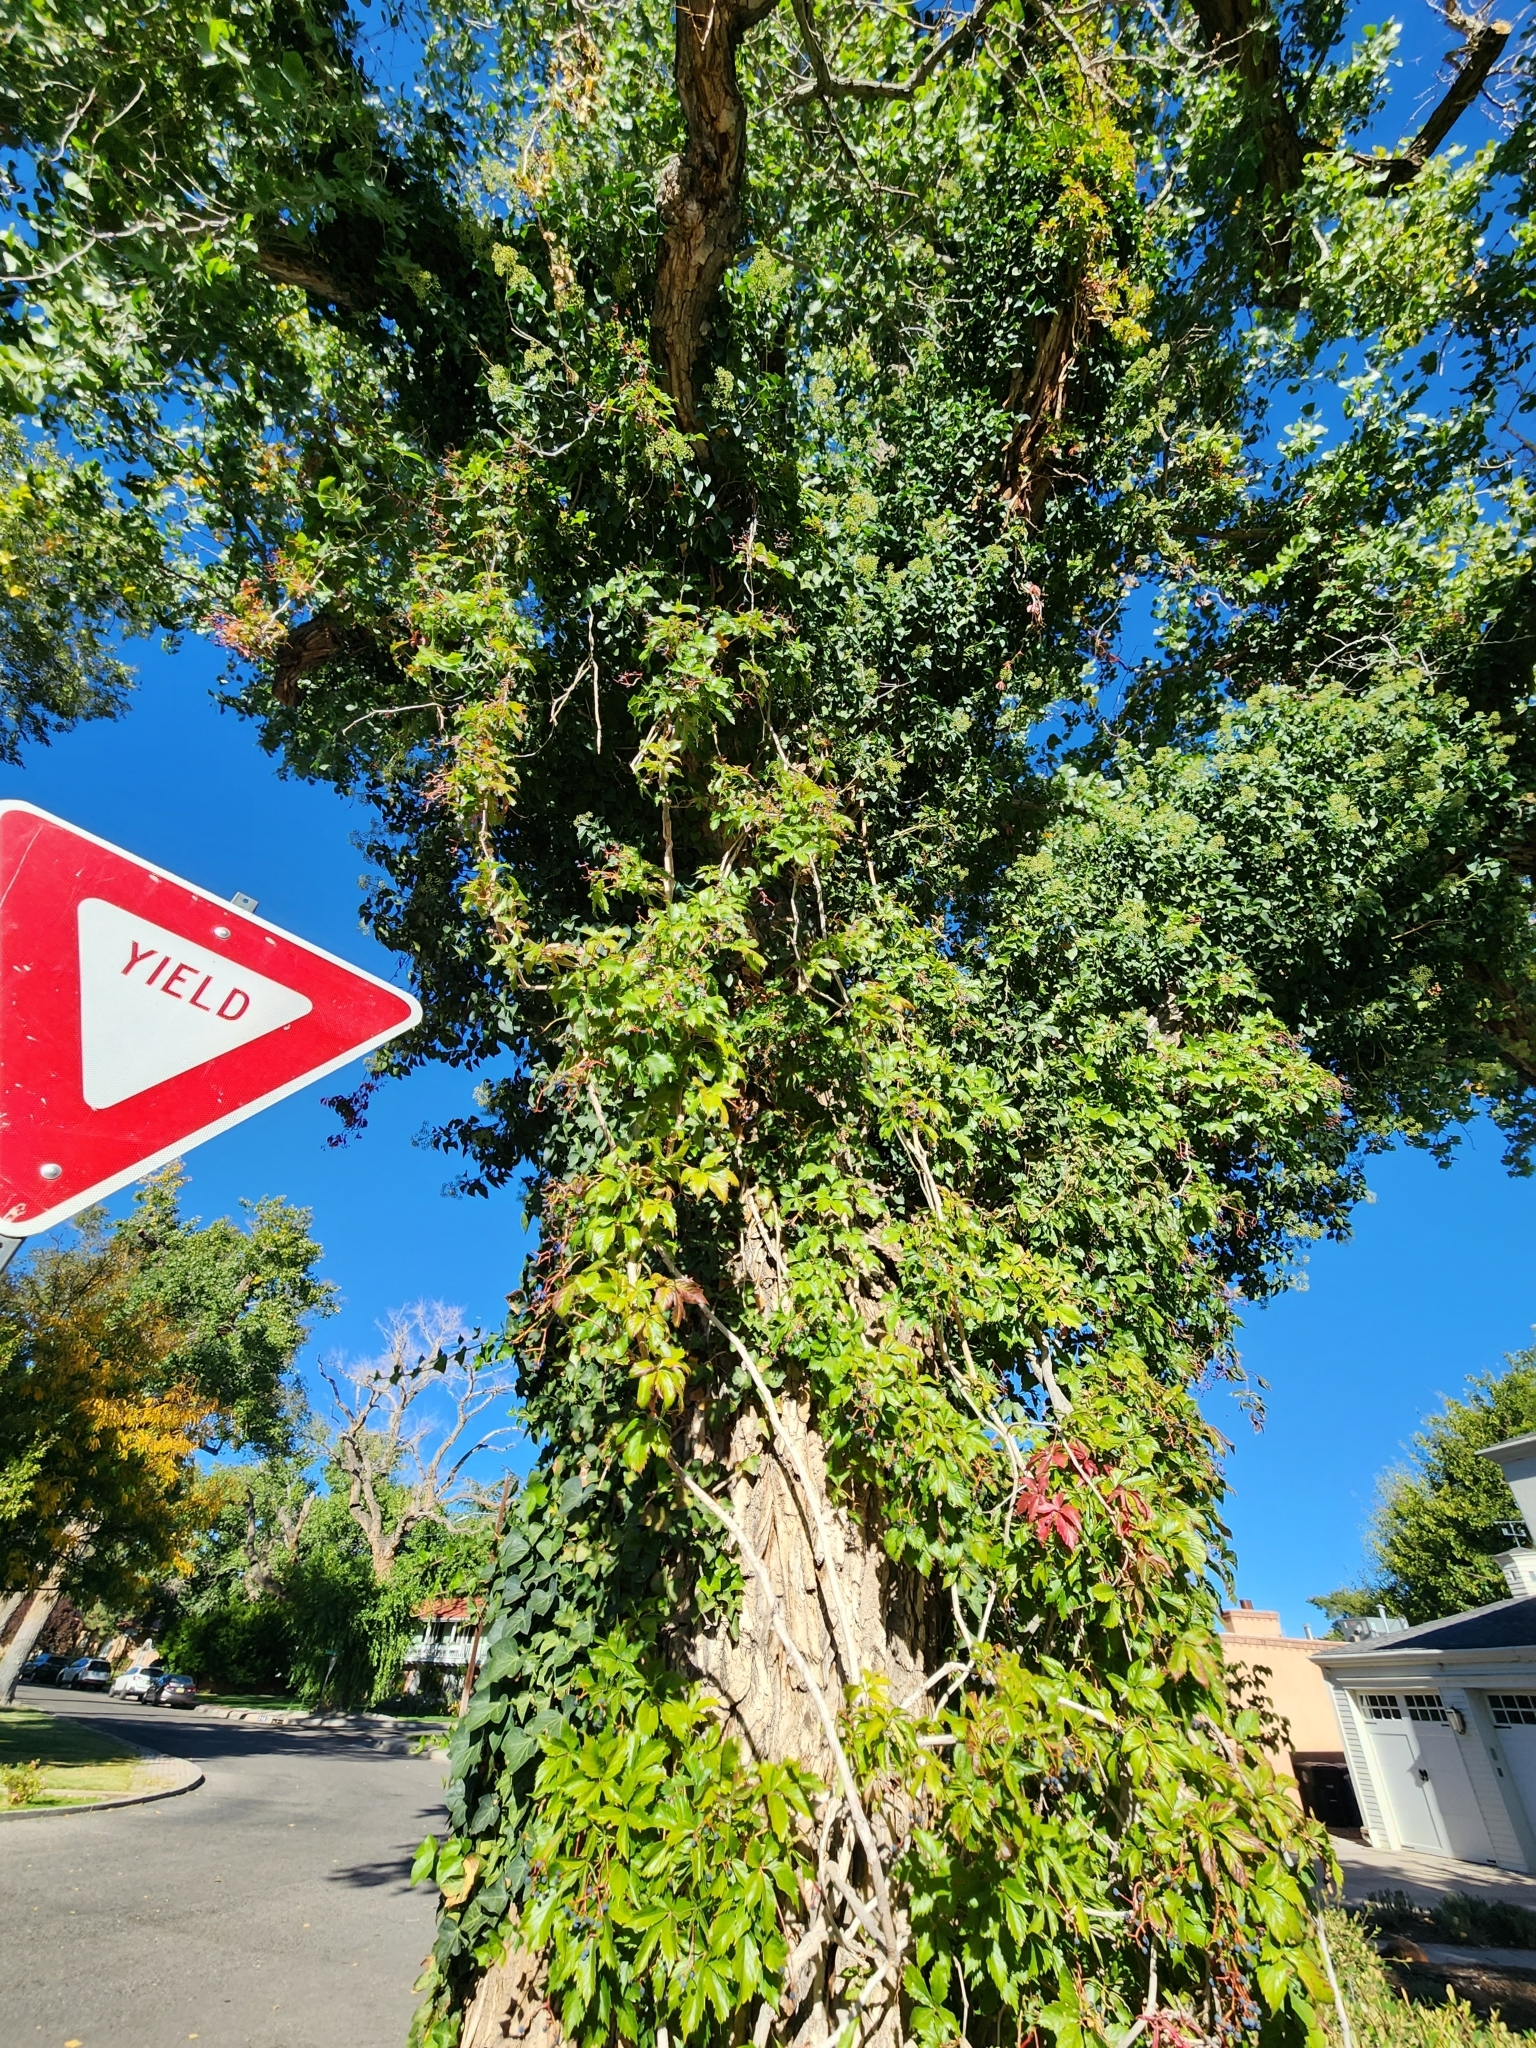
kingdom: Plantae
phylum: Tracheophyta
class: Magnoliopsida
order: Vitales
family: Vitaceae
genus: Parthenocissus
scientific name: Parthenocissus quinquefolia
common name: Virginia-creeper
